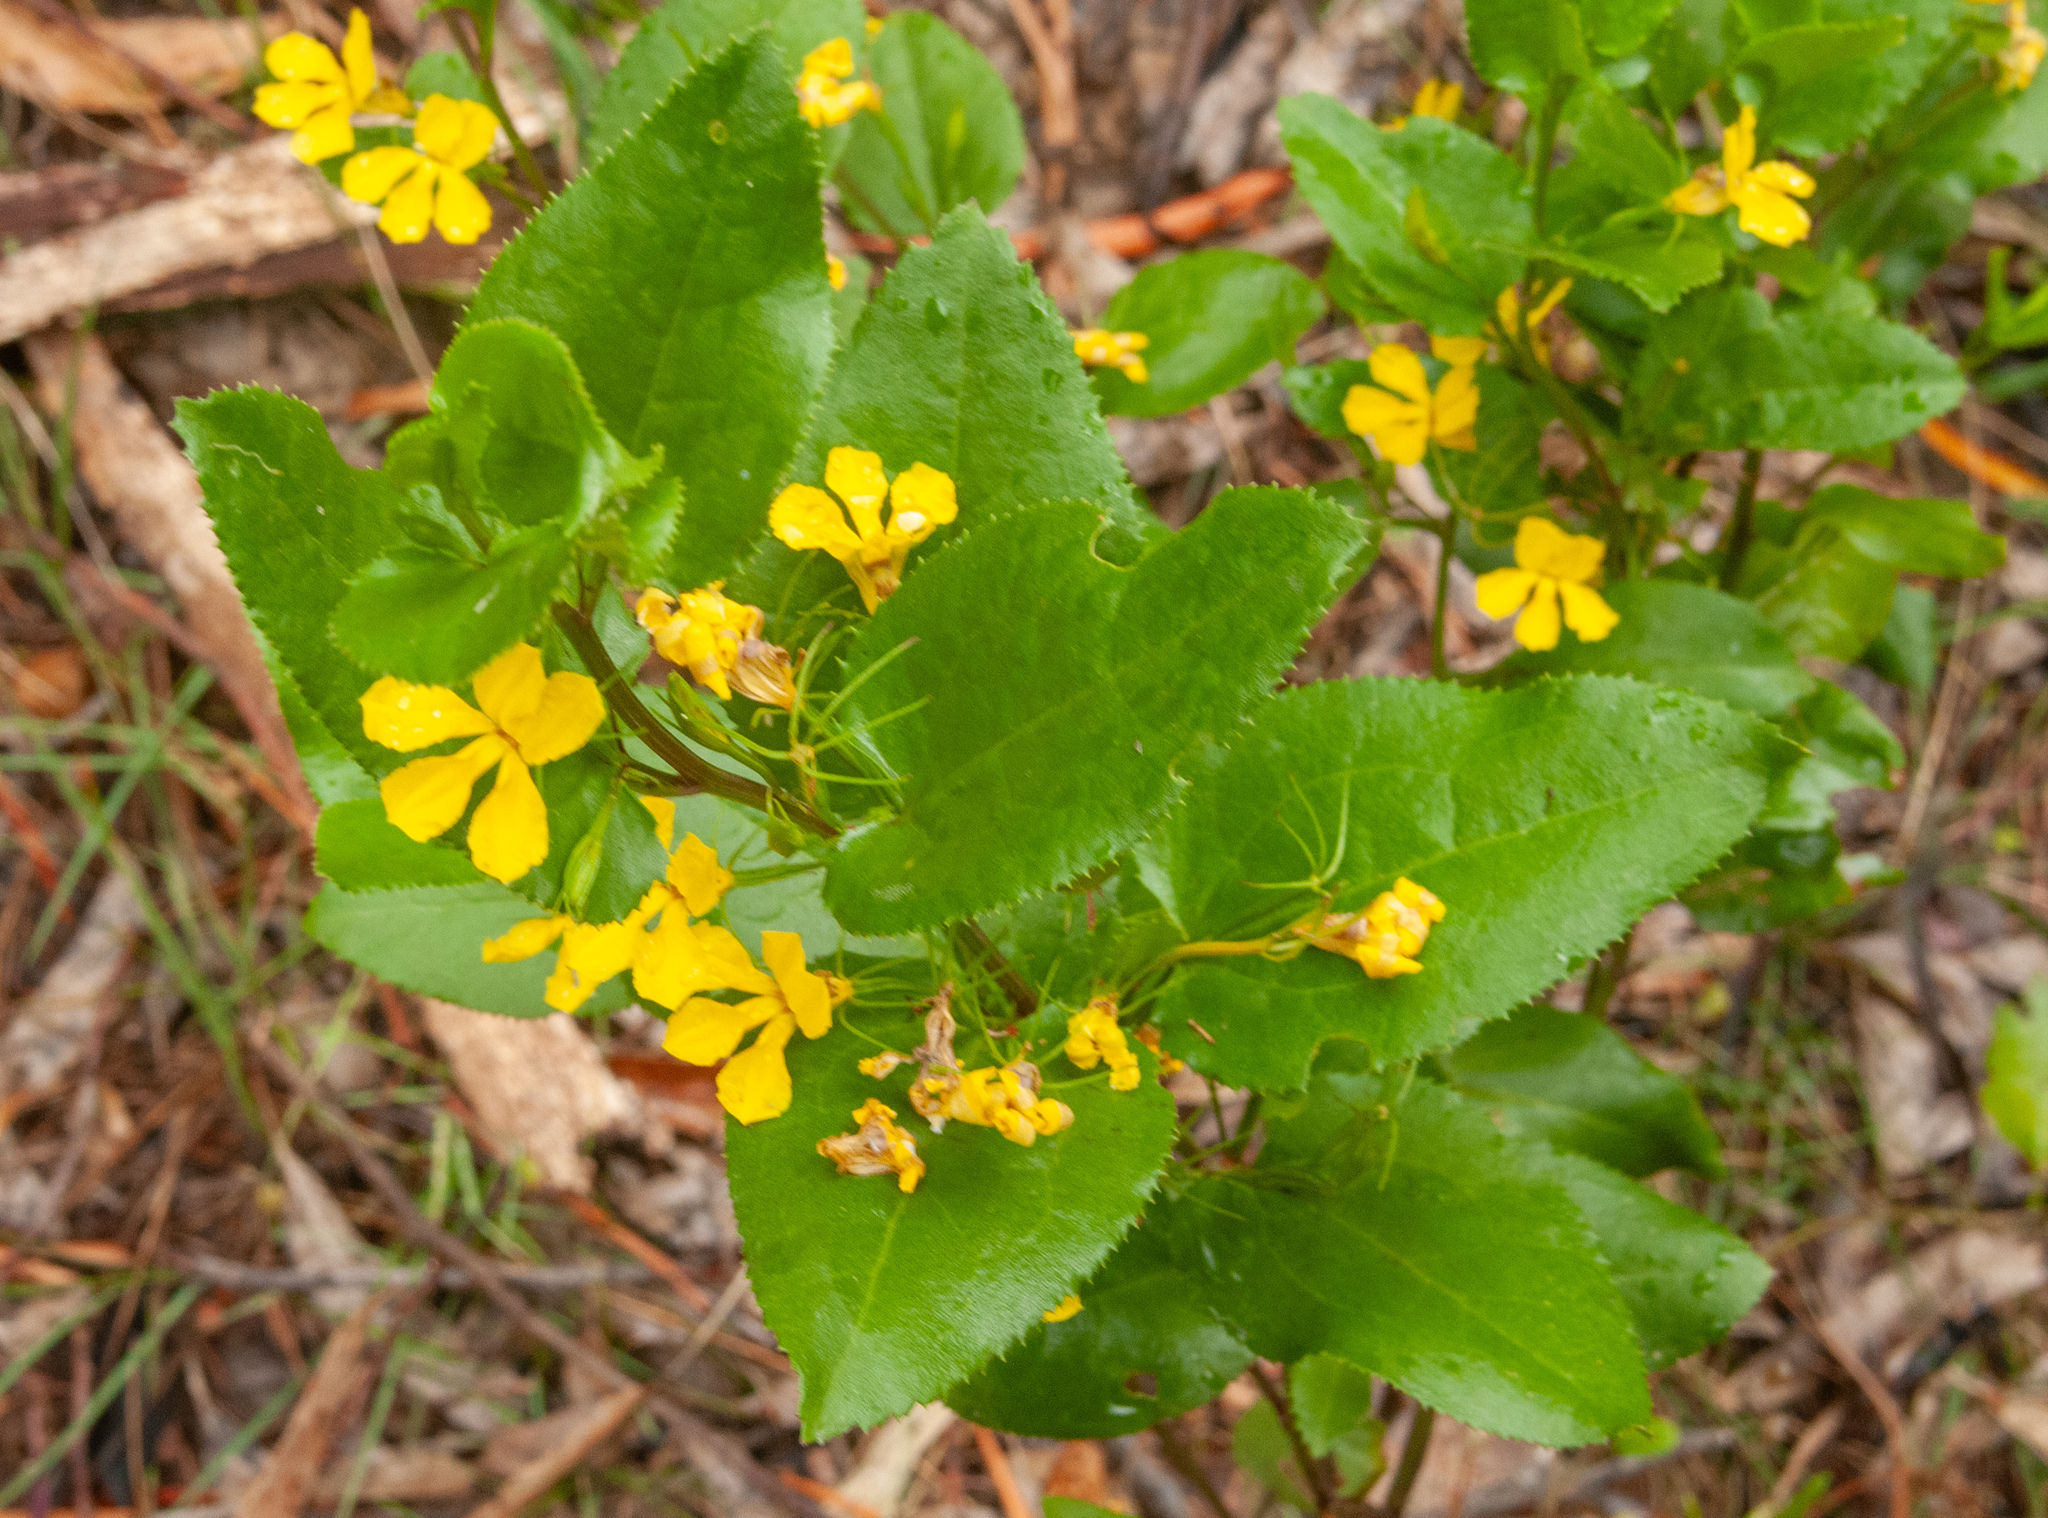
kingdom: Plantae
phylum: Tracheophyta
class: Magnoliopsida
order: Asterales
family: Goodeniaceae
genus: Goodenia
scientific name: Goodenia ovata
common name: Hop goodenia
